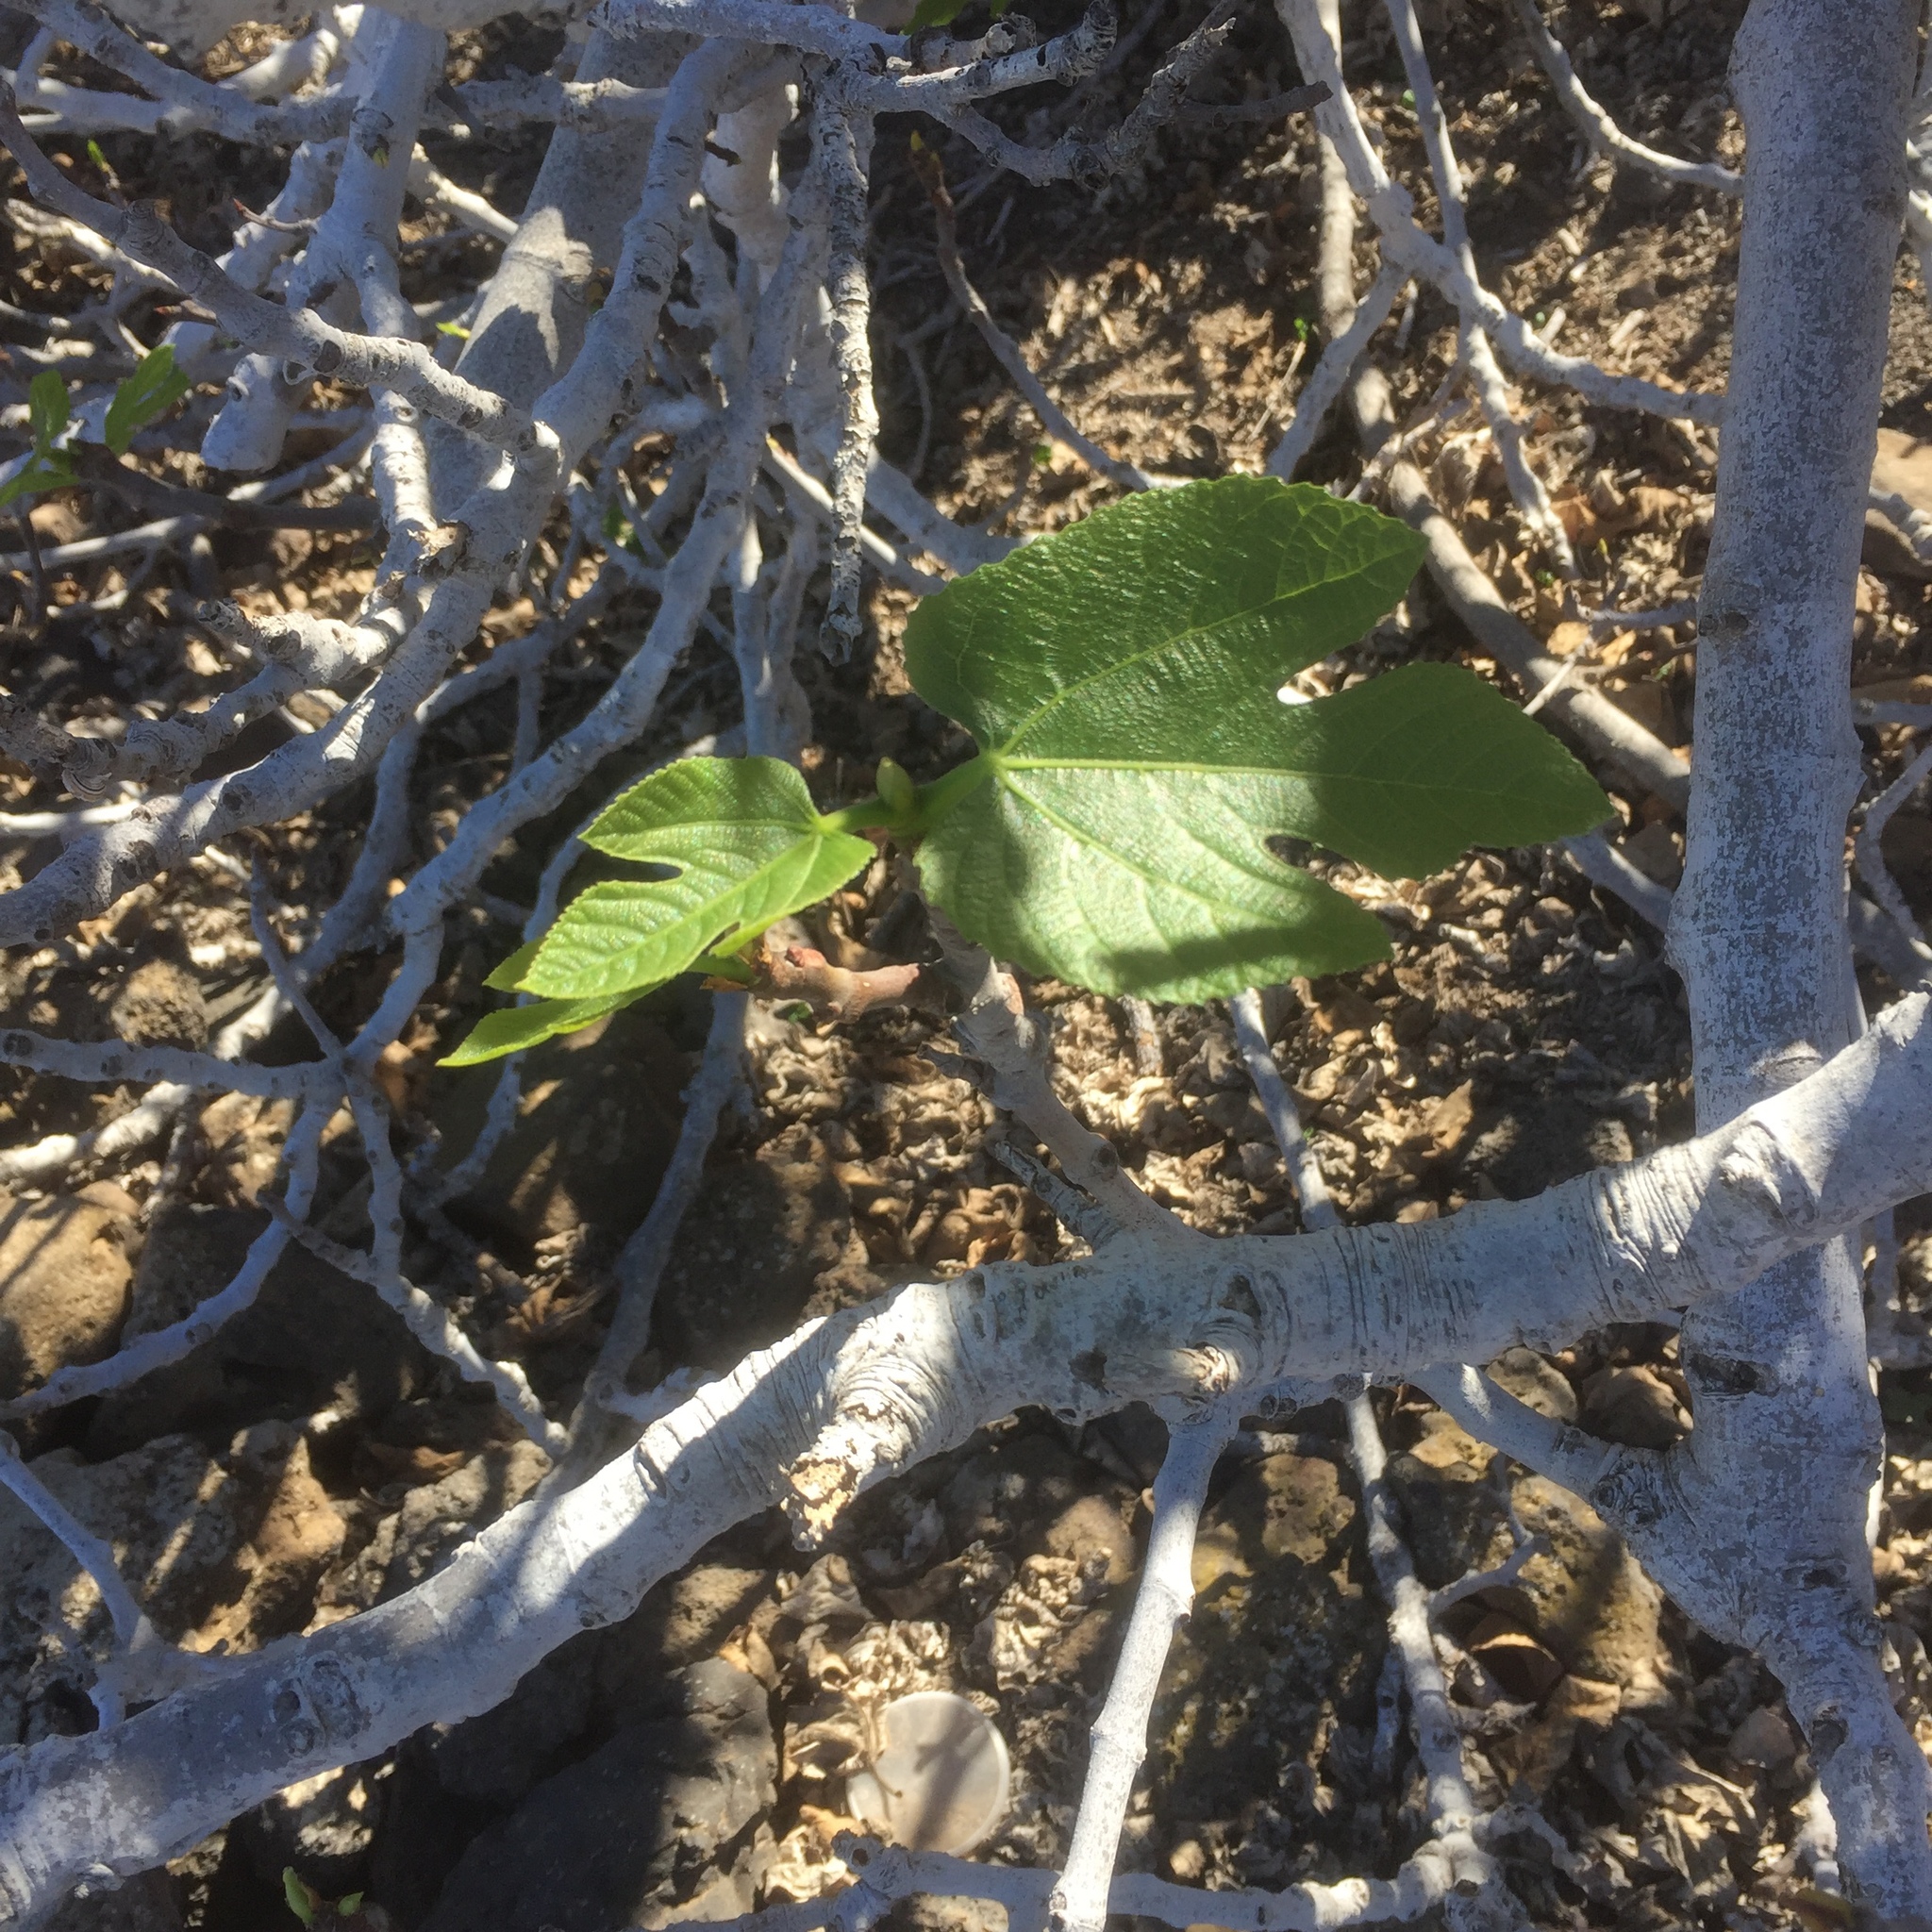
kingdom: Plantae
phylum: Tracheophyta
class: Magnoliopsida
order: Rosales
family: Moraceae
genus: Ficus
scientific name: Ficus carica
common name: Fig
